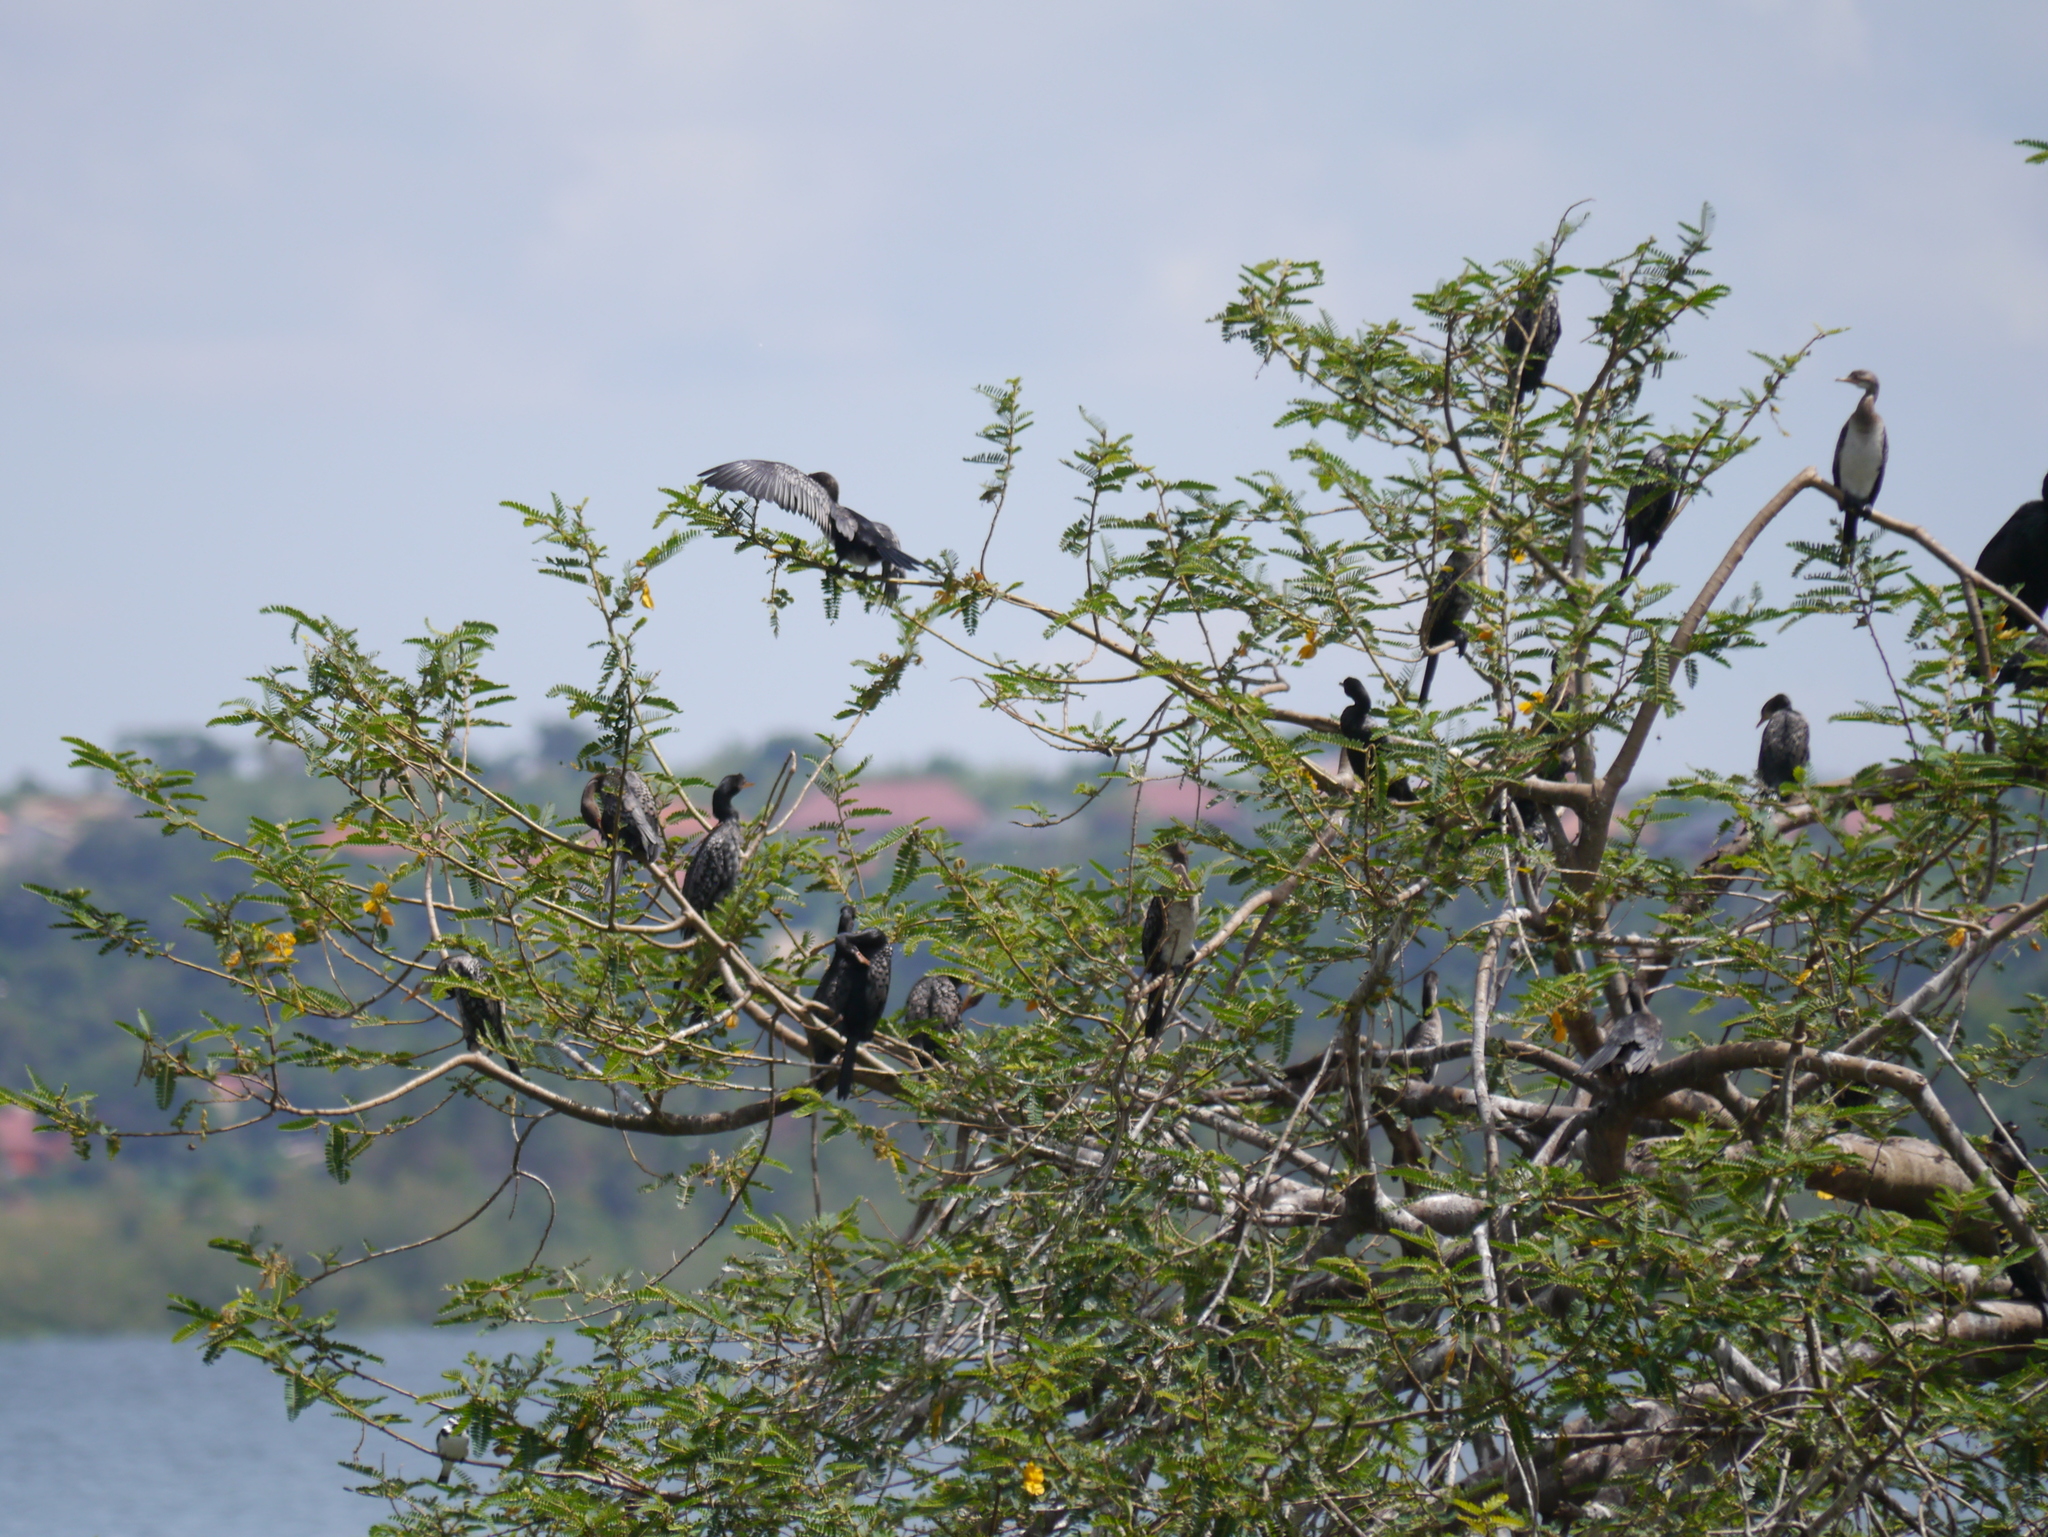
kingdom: Animalia
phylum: Chordata
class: Aves
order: Suliformes
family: Phalacrocoracidae
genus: Microcarbo
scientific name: Microcarbo africanus
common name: Long-tailed cormorant
